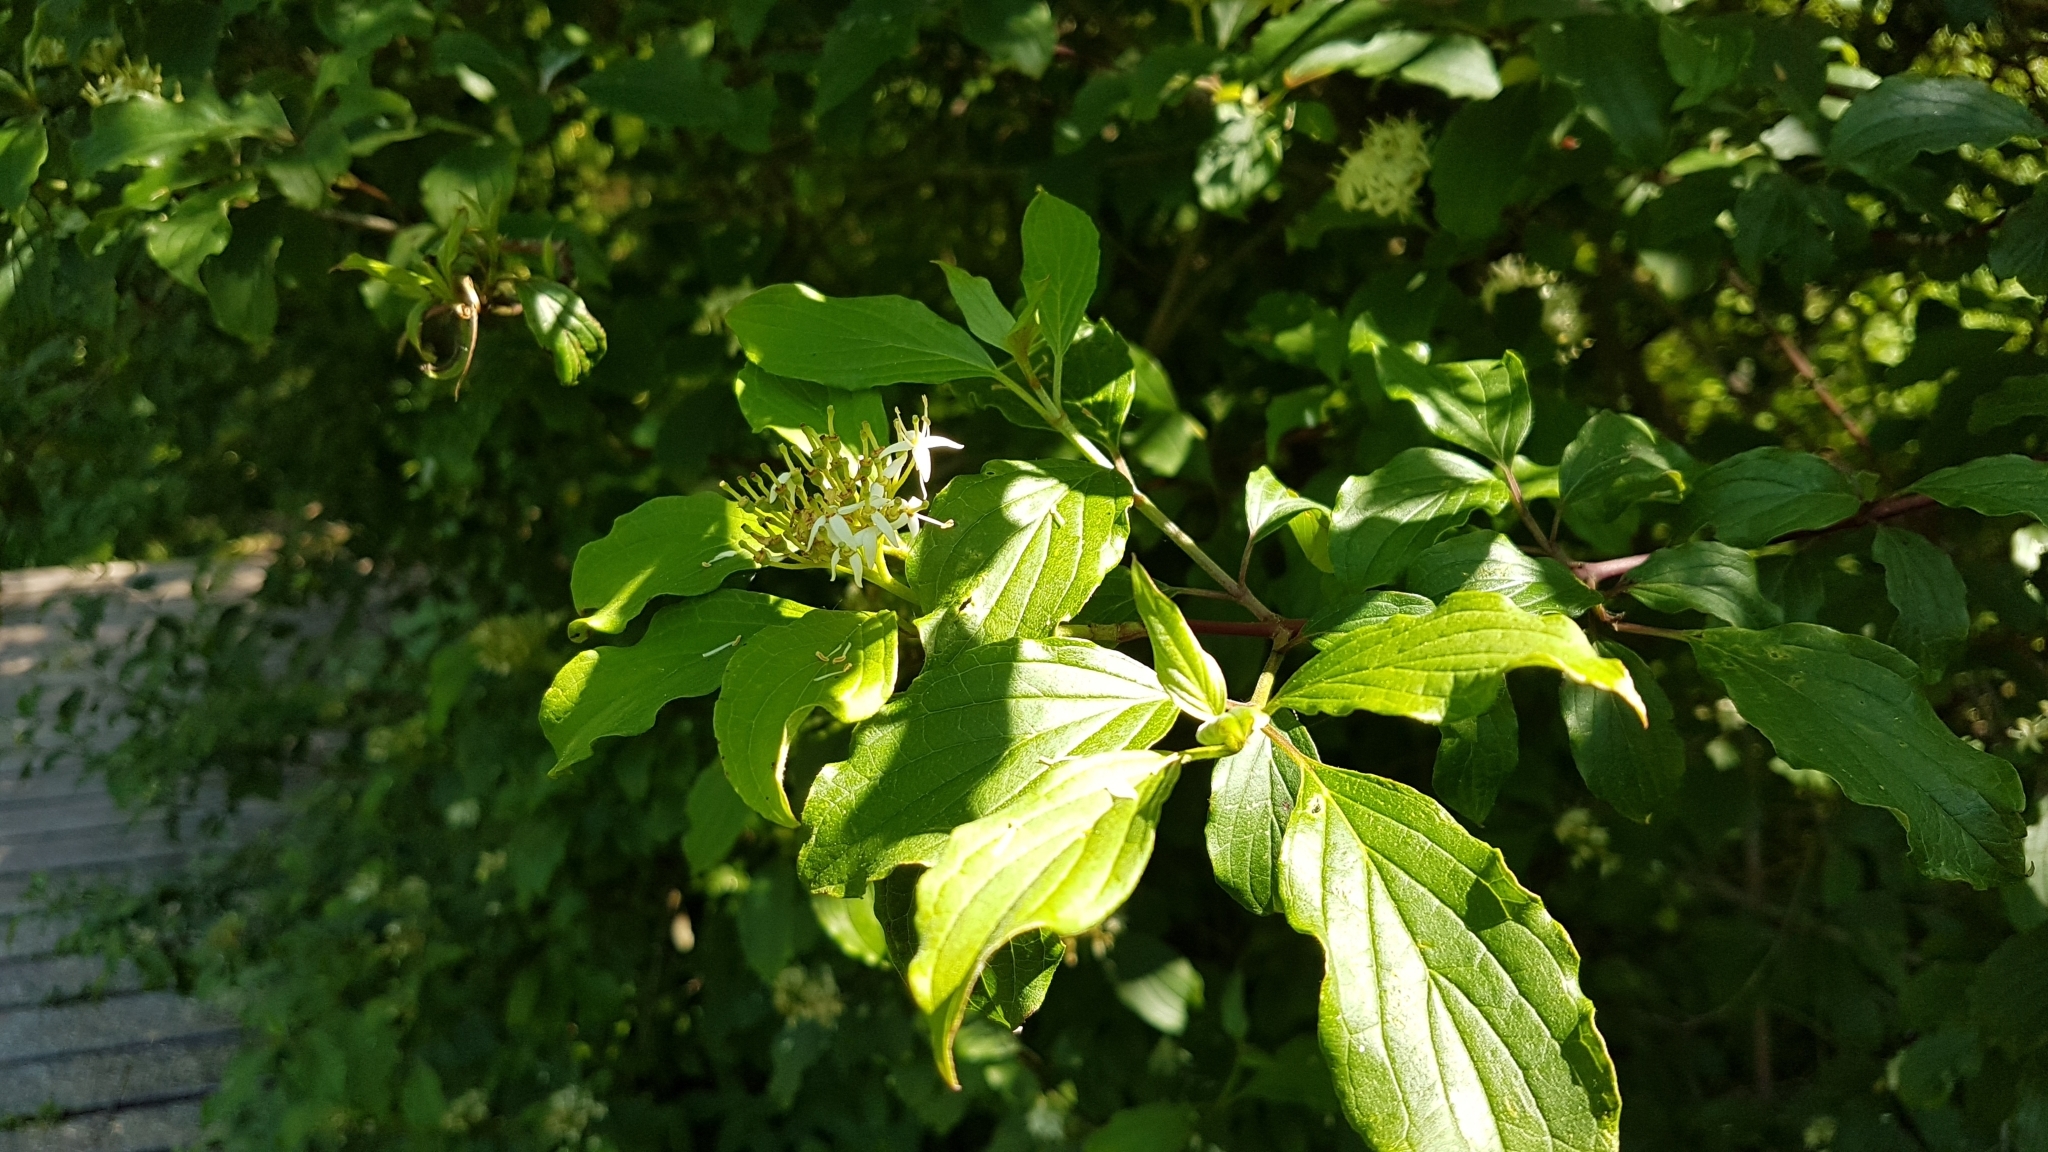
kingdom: Plantae
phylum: Tracheophyta
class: Magnoliopsida
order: Cornales
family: Cornaceae
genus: Cornus
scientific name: Cornus sanguinea
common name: Dogwood
